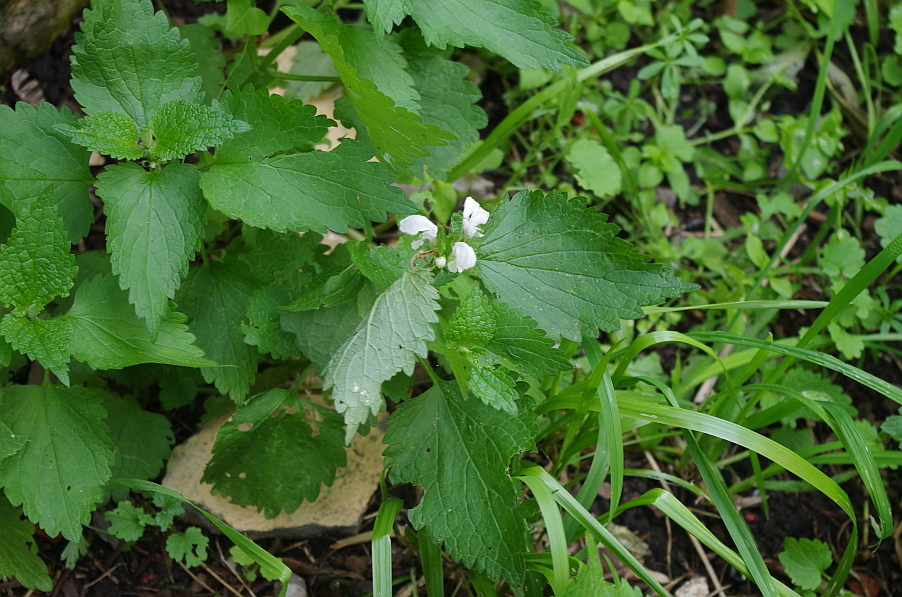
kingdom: Plantae
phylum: Tracheophyta
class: Magnoliopsida
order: Lamiales
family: Lamiaceae
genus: Lamium
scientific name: Lamium album
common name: White dead-nettle
